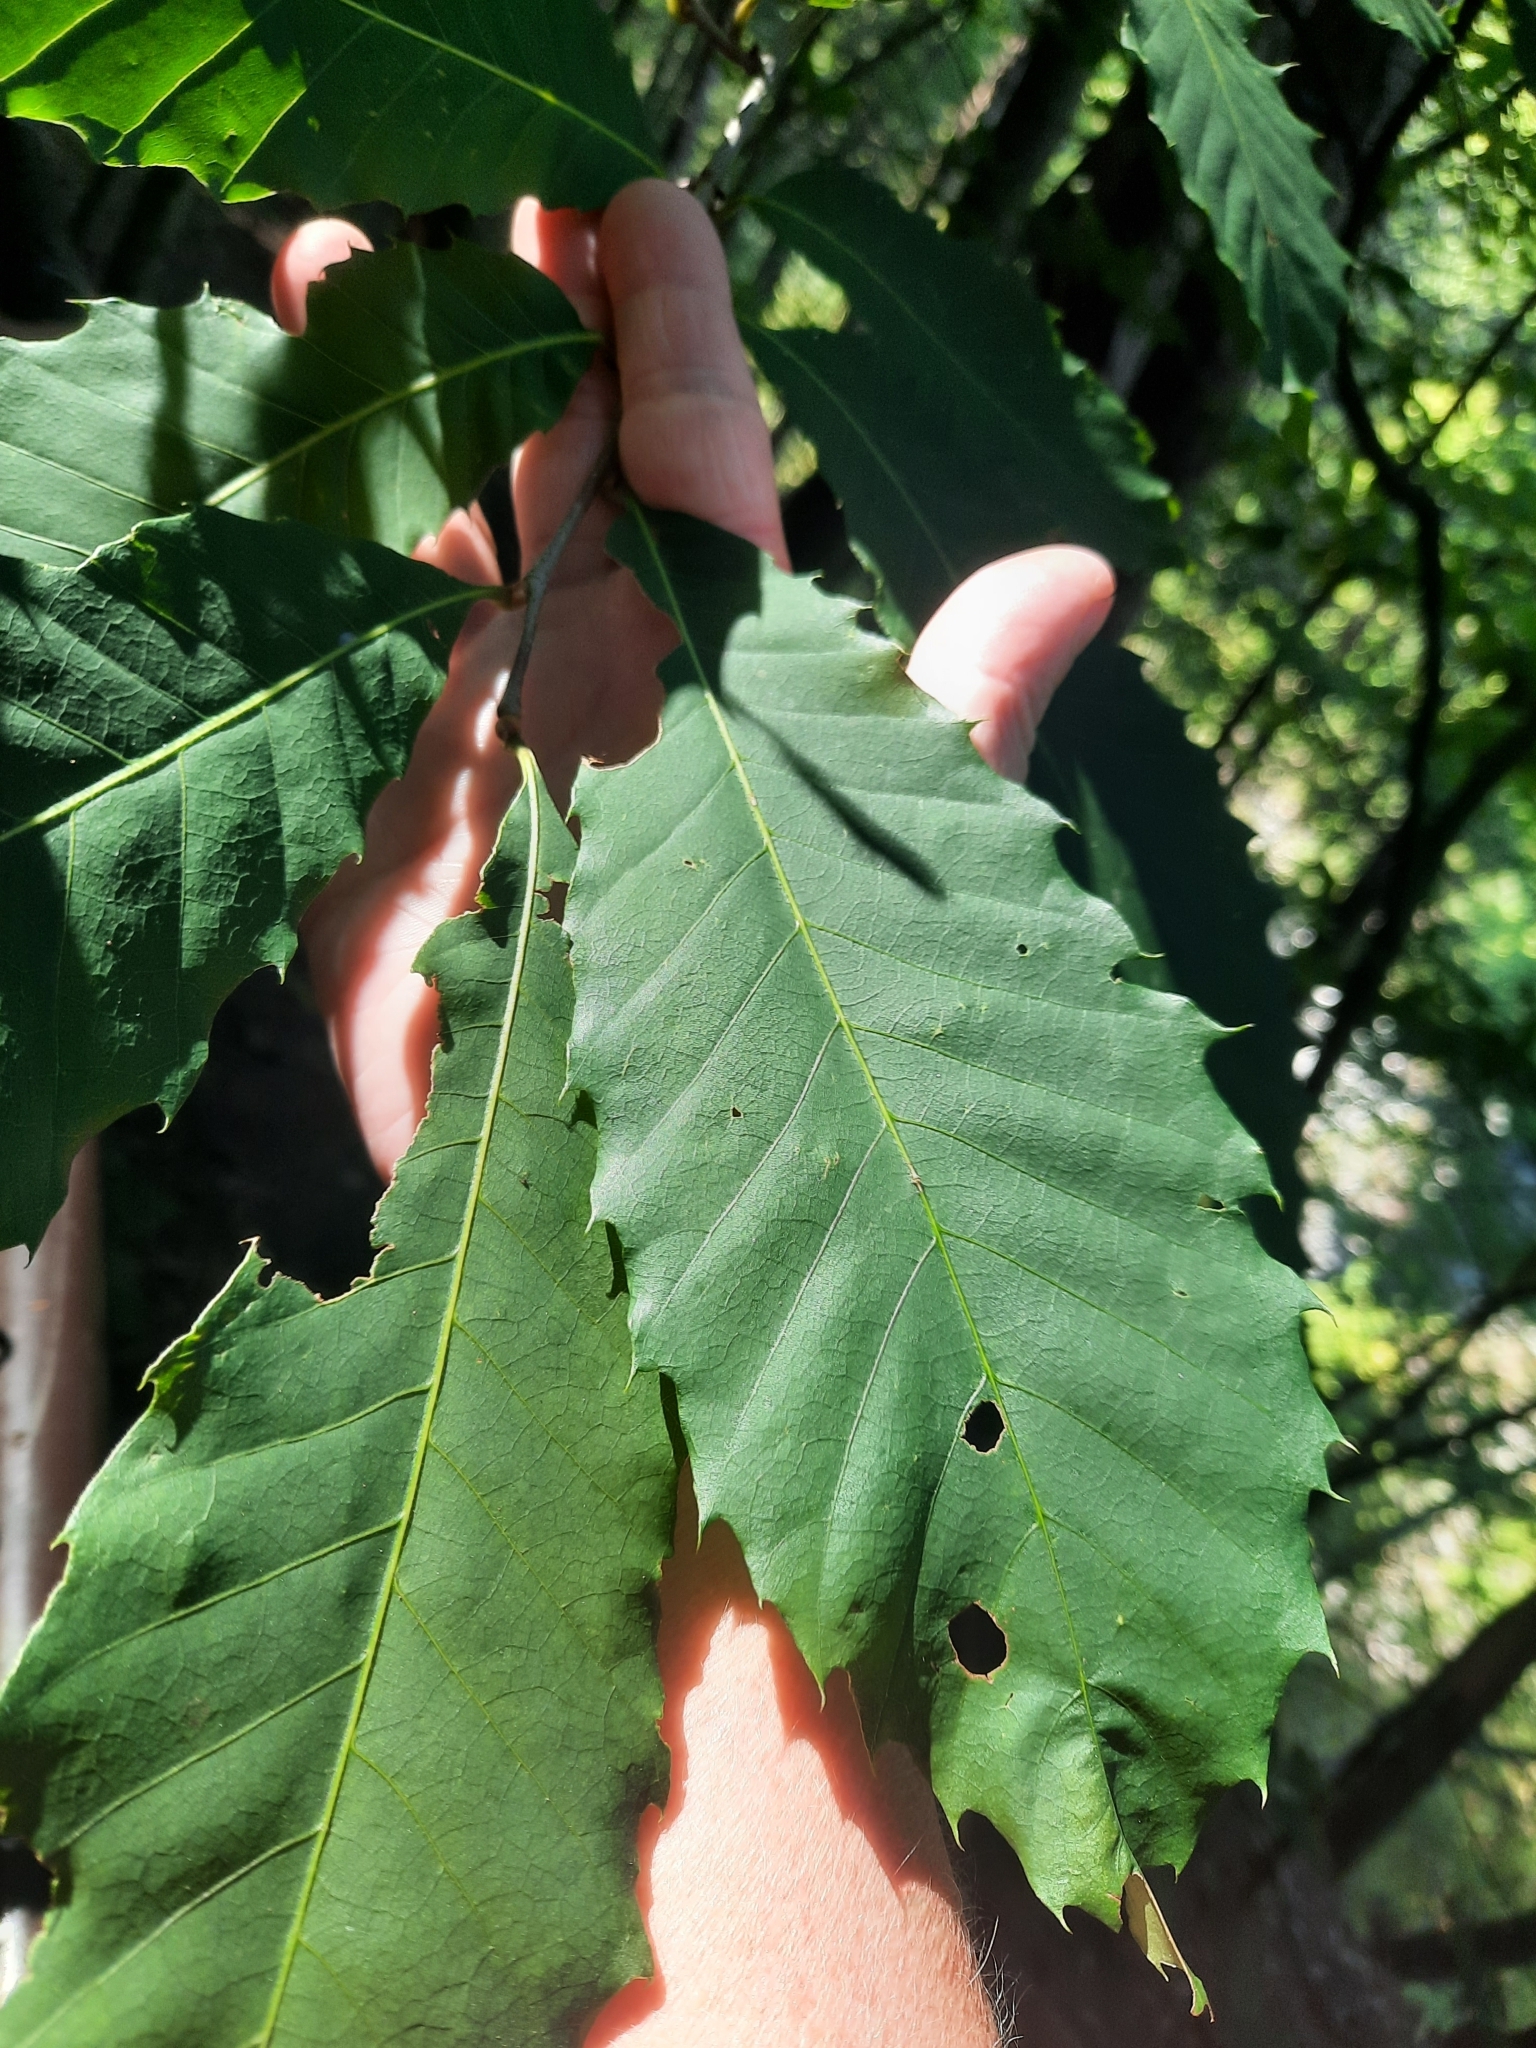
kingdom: Plantae
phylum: Tracheophyta
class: Magnoliopsida
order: Fagales
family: Fagaceae
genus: Castanea
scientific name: Castanea dentata
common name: American chestnut
